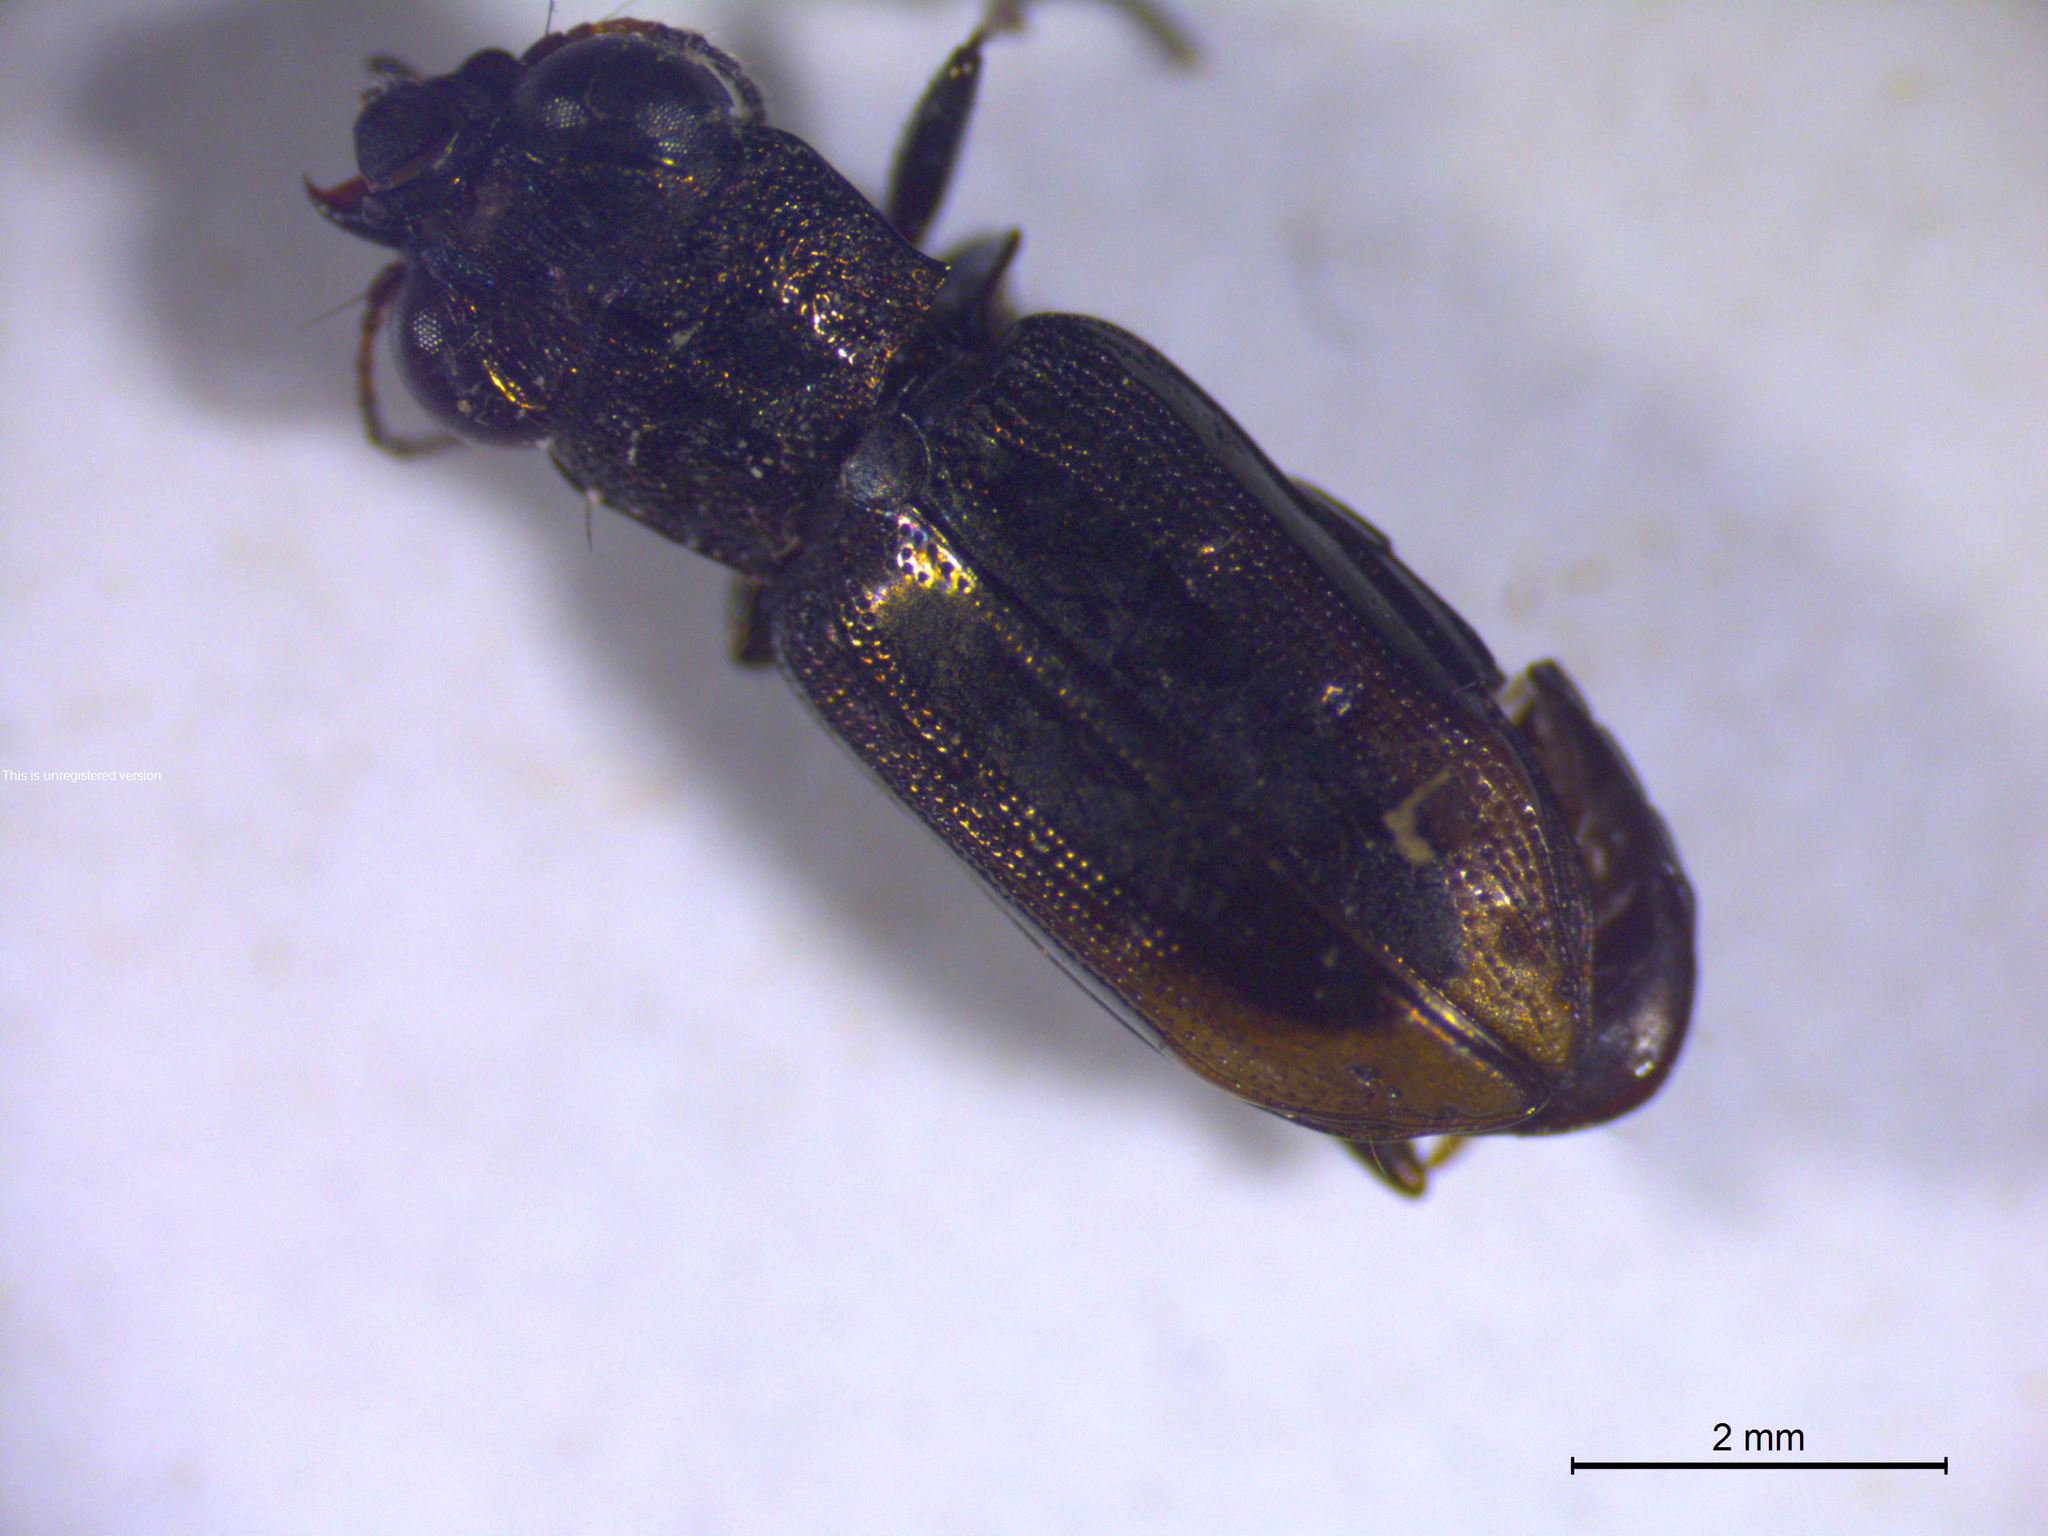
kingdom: Animalia
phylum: Arthropoda
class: Insecta
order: Coleoptera
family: Carabidae
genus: Notiophilus
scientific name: Notiophilus quadripunctatus
